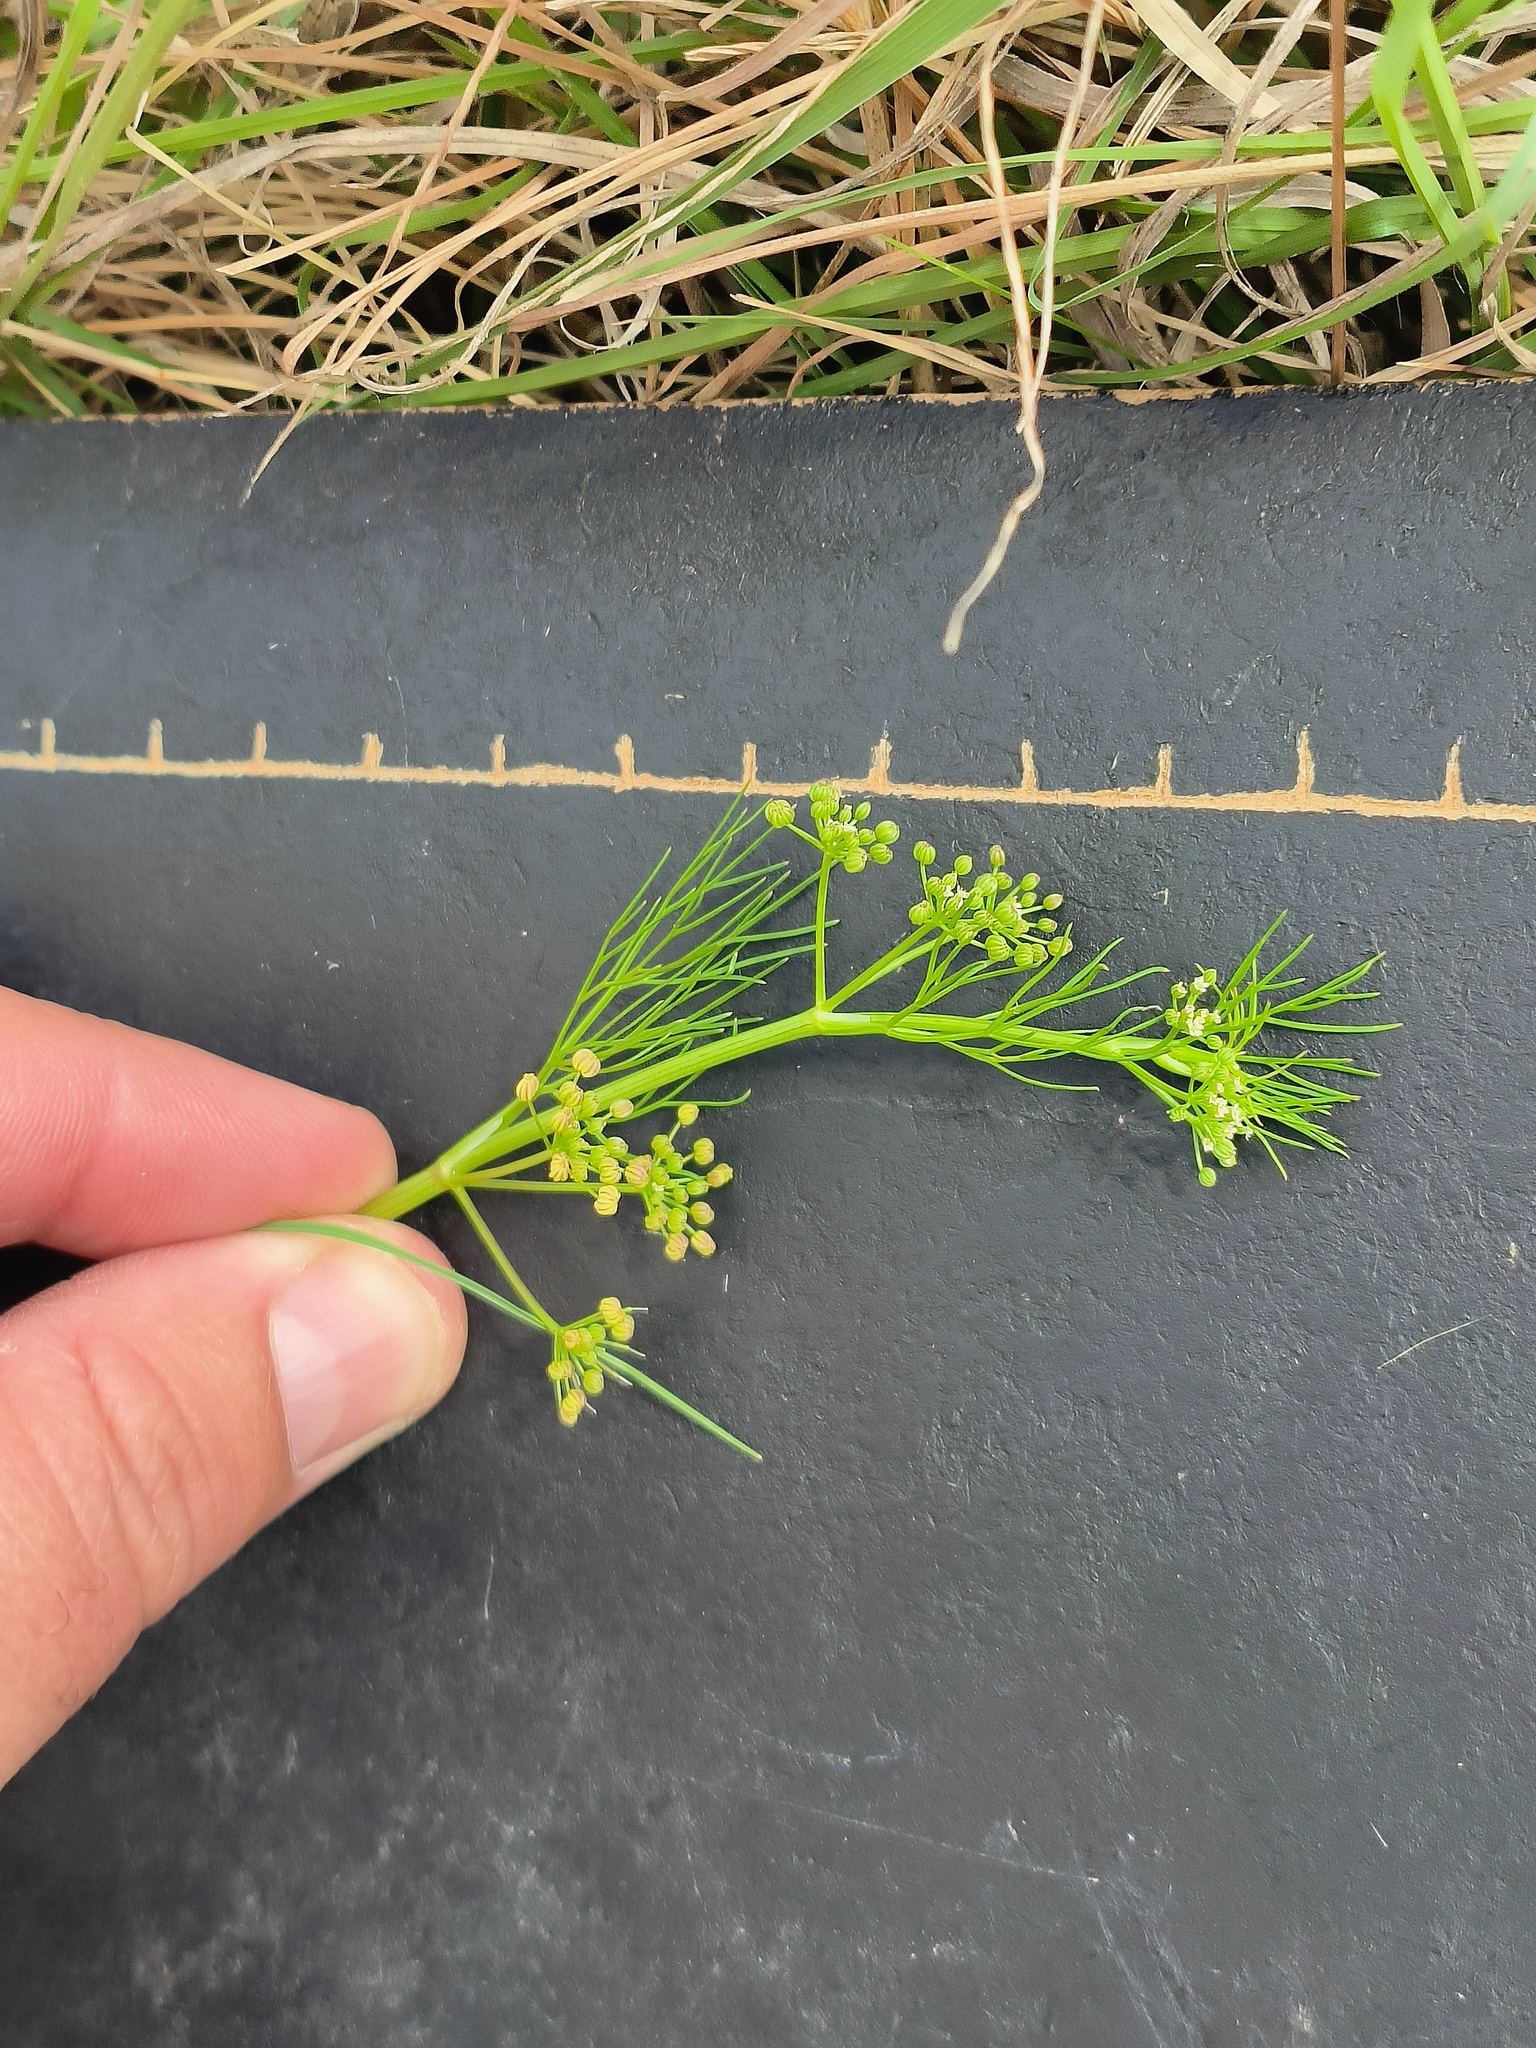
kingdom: Plantae
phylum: Tracheophyta
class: Magnoliopsida
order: Apiales
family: Apiaceae
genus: Cyclospermum
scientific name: Cyclospermum leptophyllum
